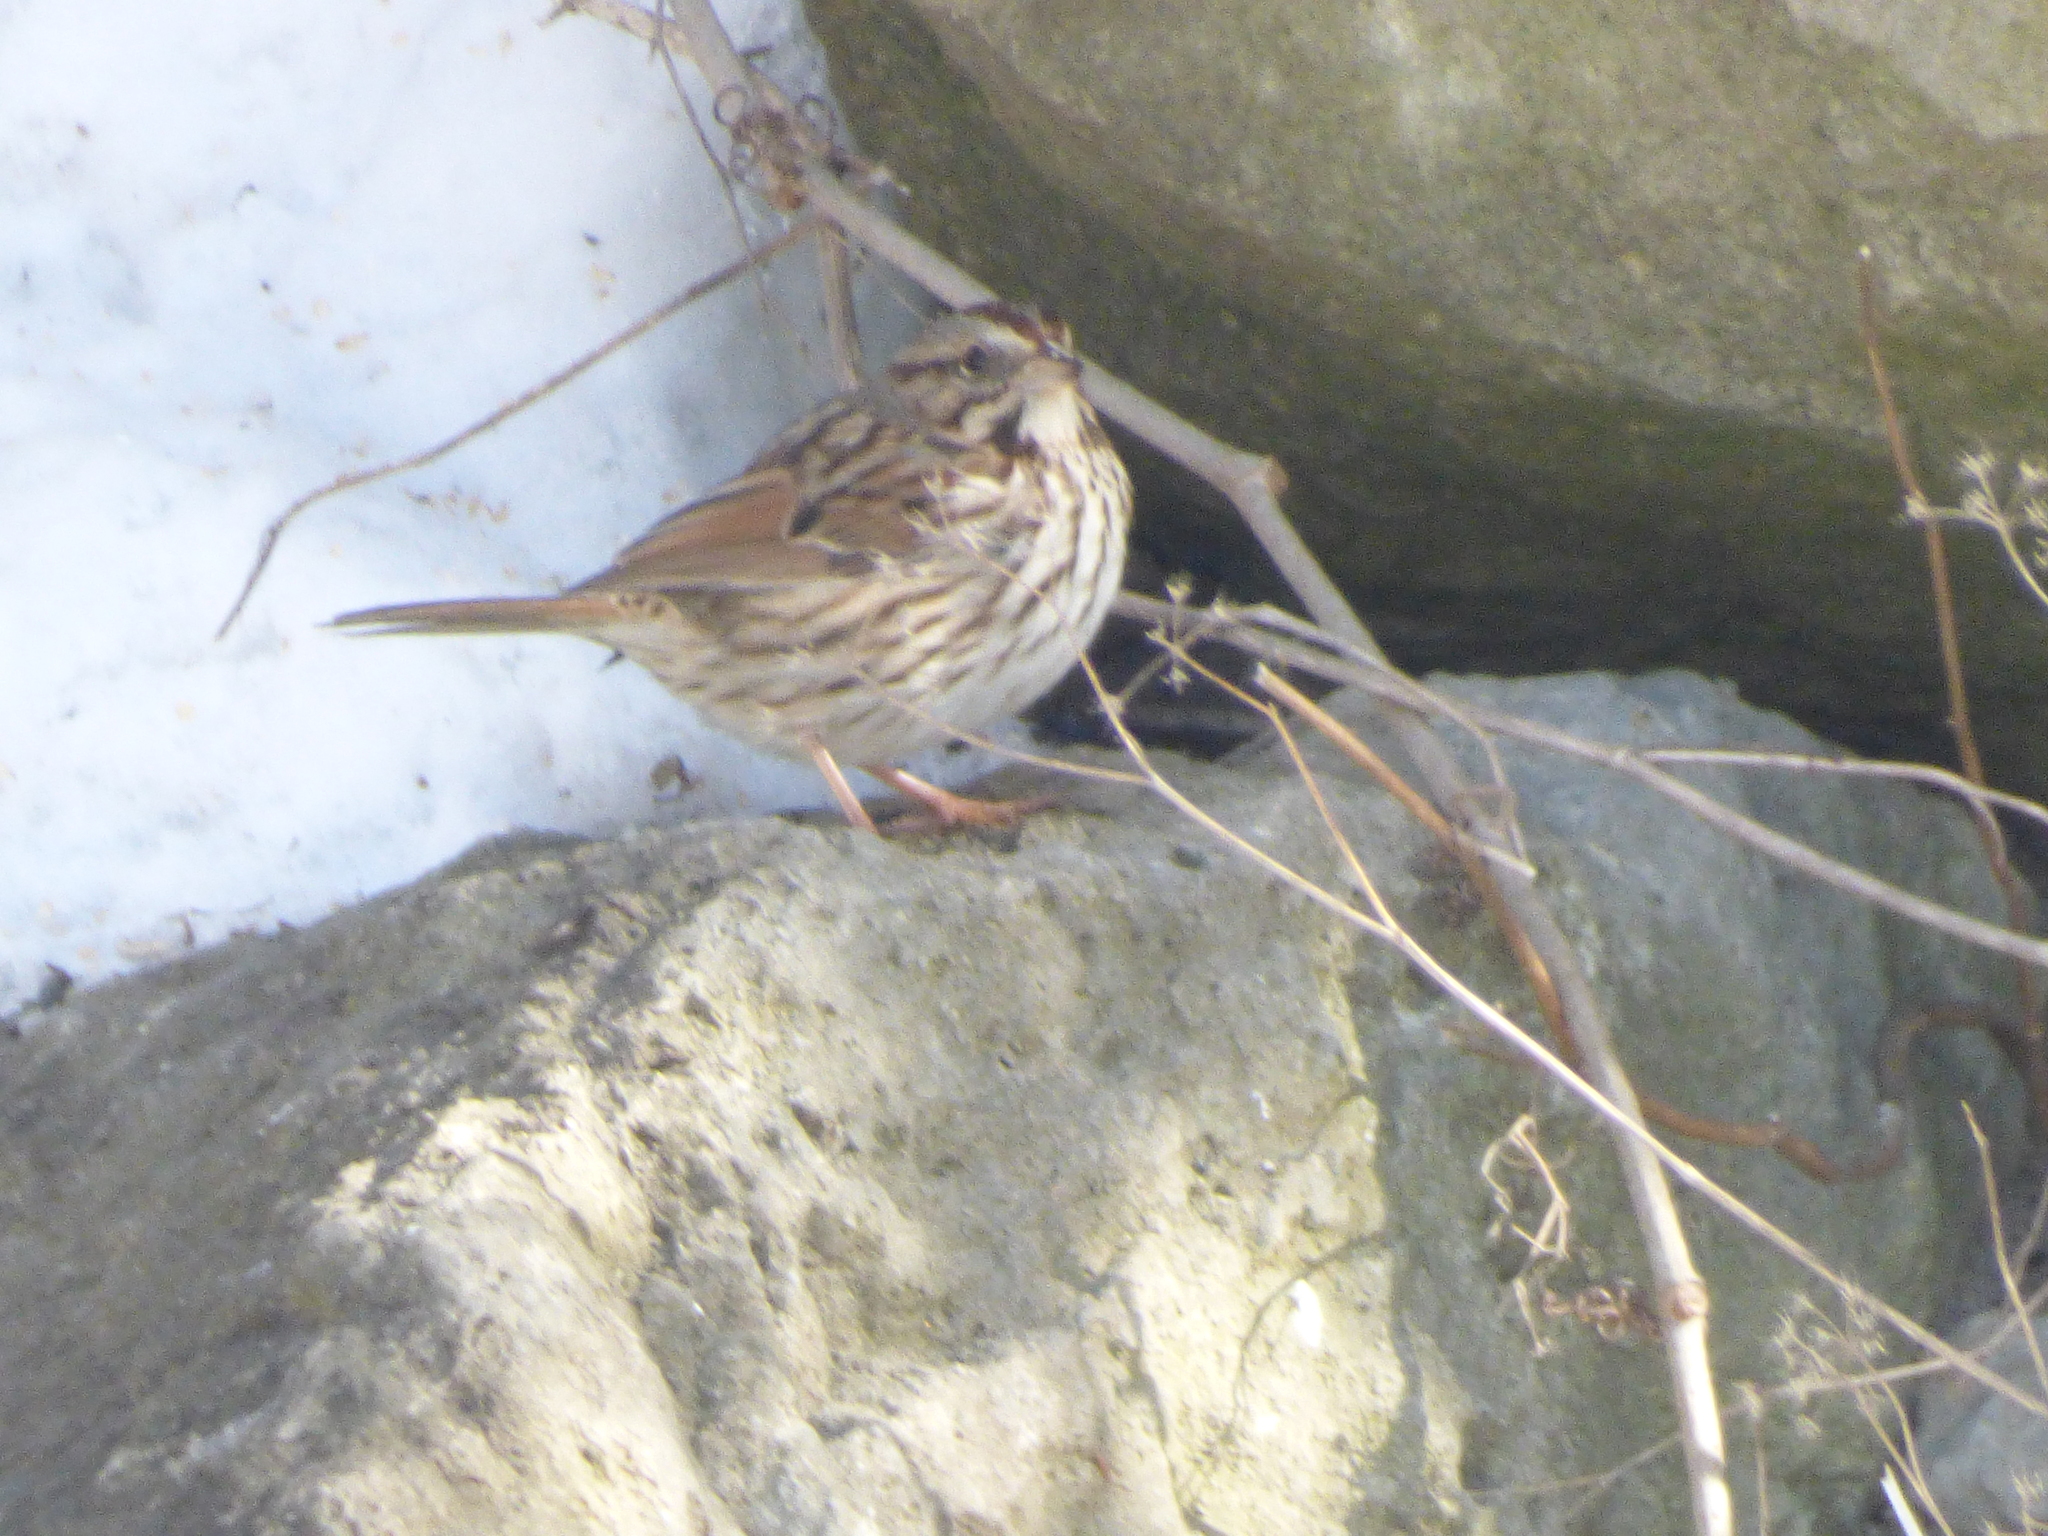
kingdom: Animalia
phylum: Chordata
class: Aves
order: Passeriformes
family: Passerellidae
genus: Melospiza
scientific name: Melospiza melodia
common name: Song sparrow
